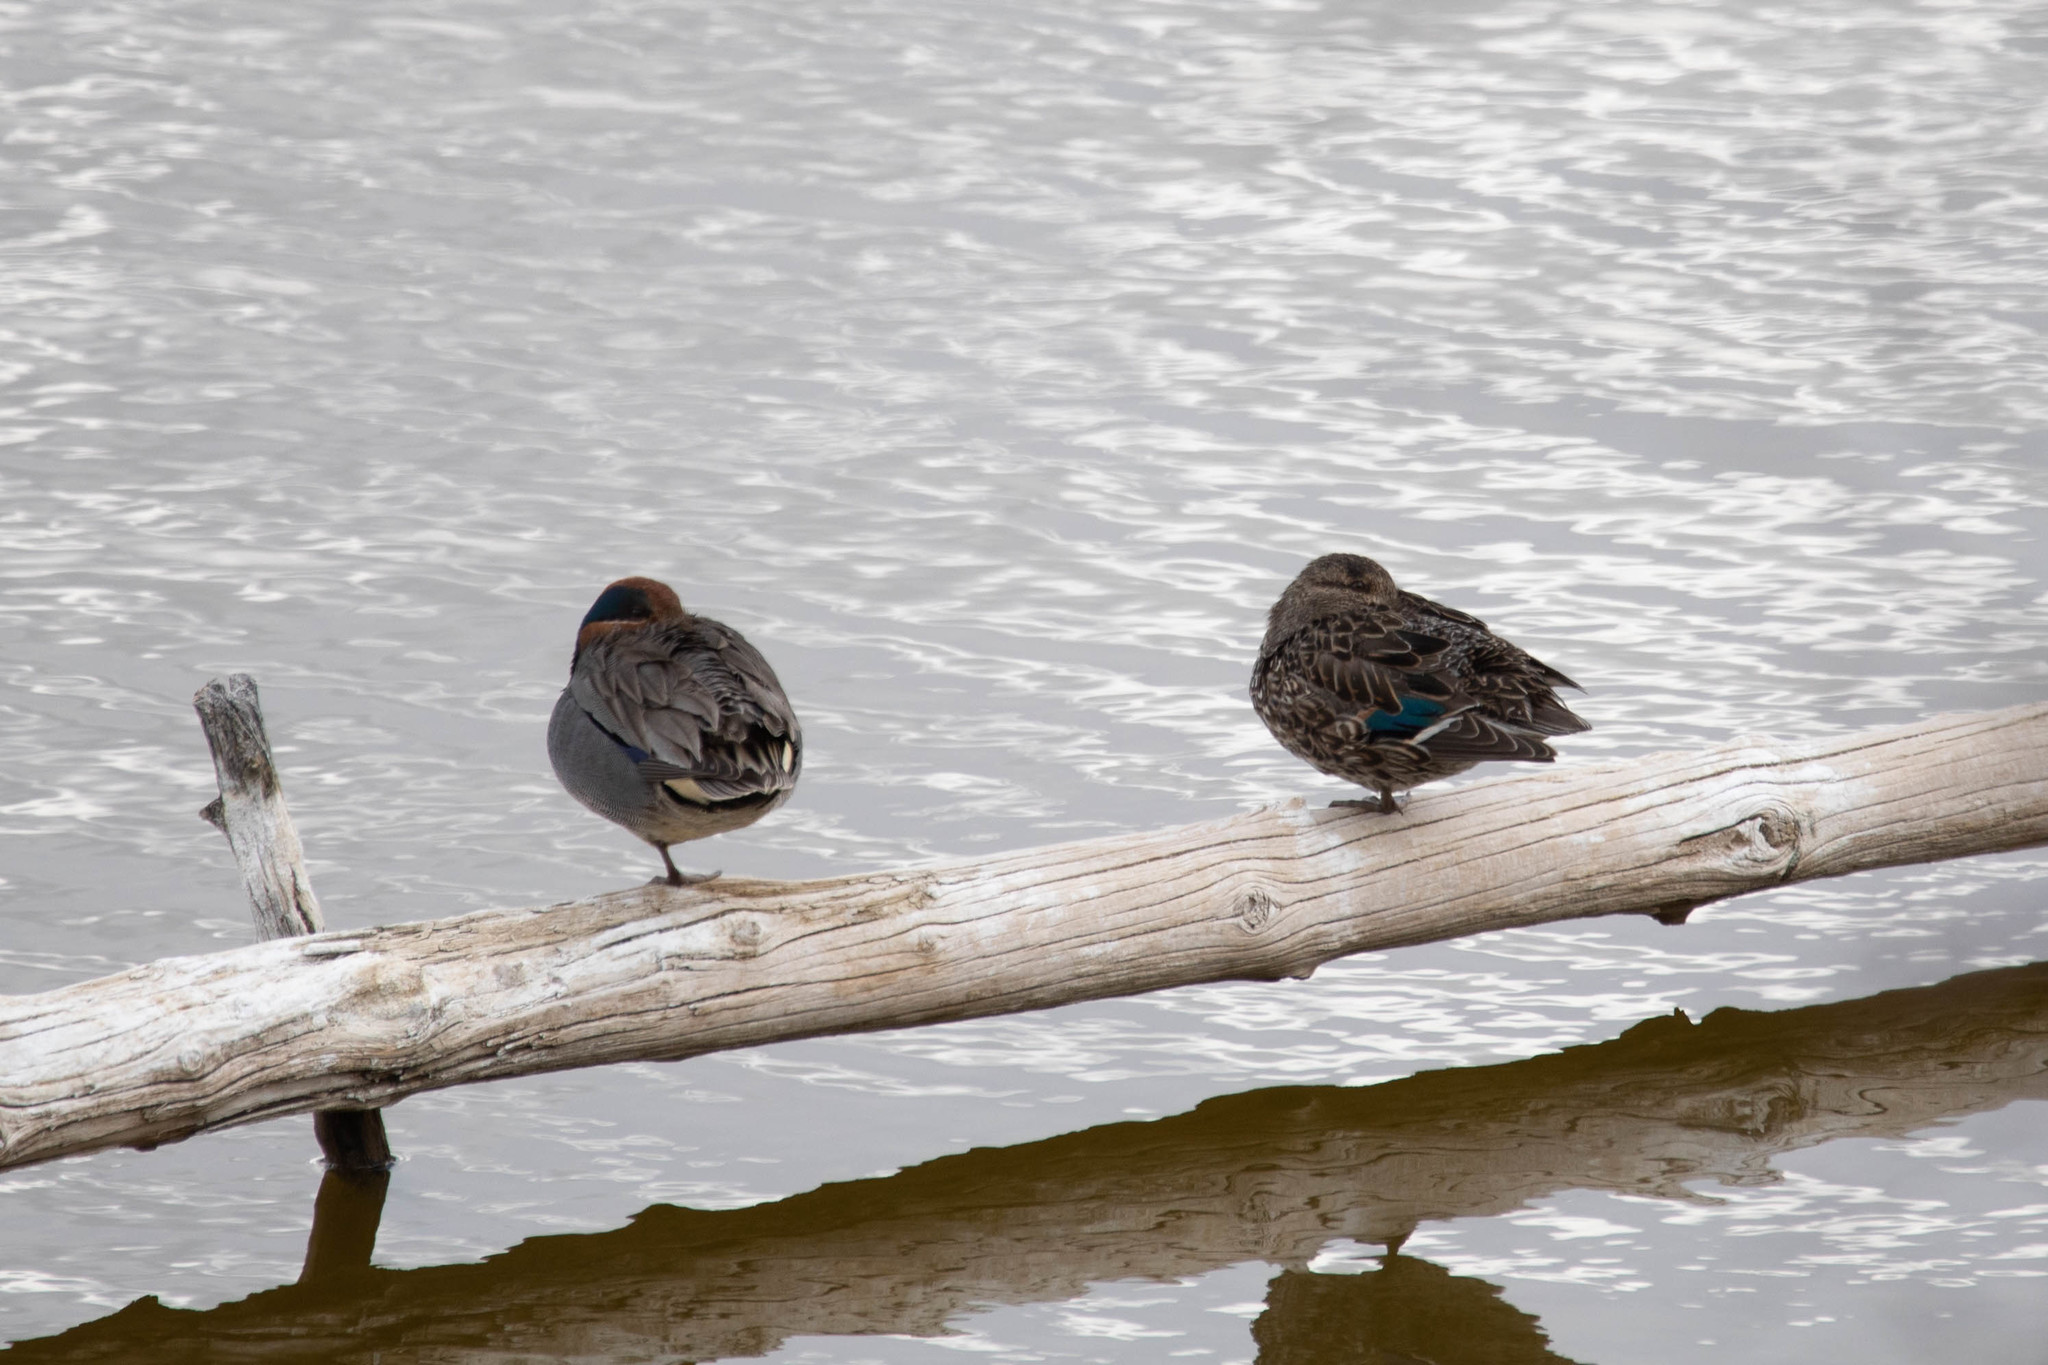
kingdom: Animalia
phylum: Chordata
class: Aves
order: Anseriformes
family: Anatidae
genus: Anas
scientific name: Anas carolinensis
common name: Green-winged teal
